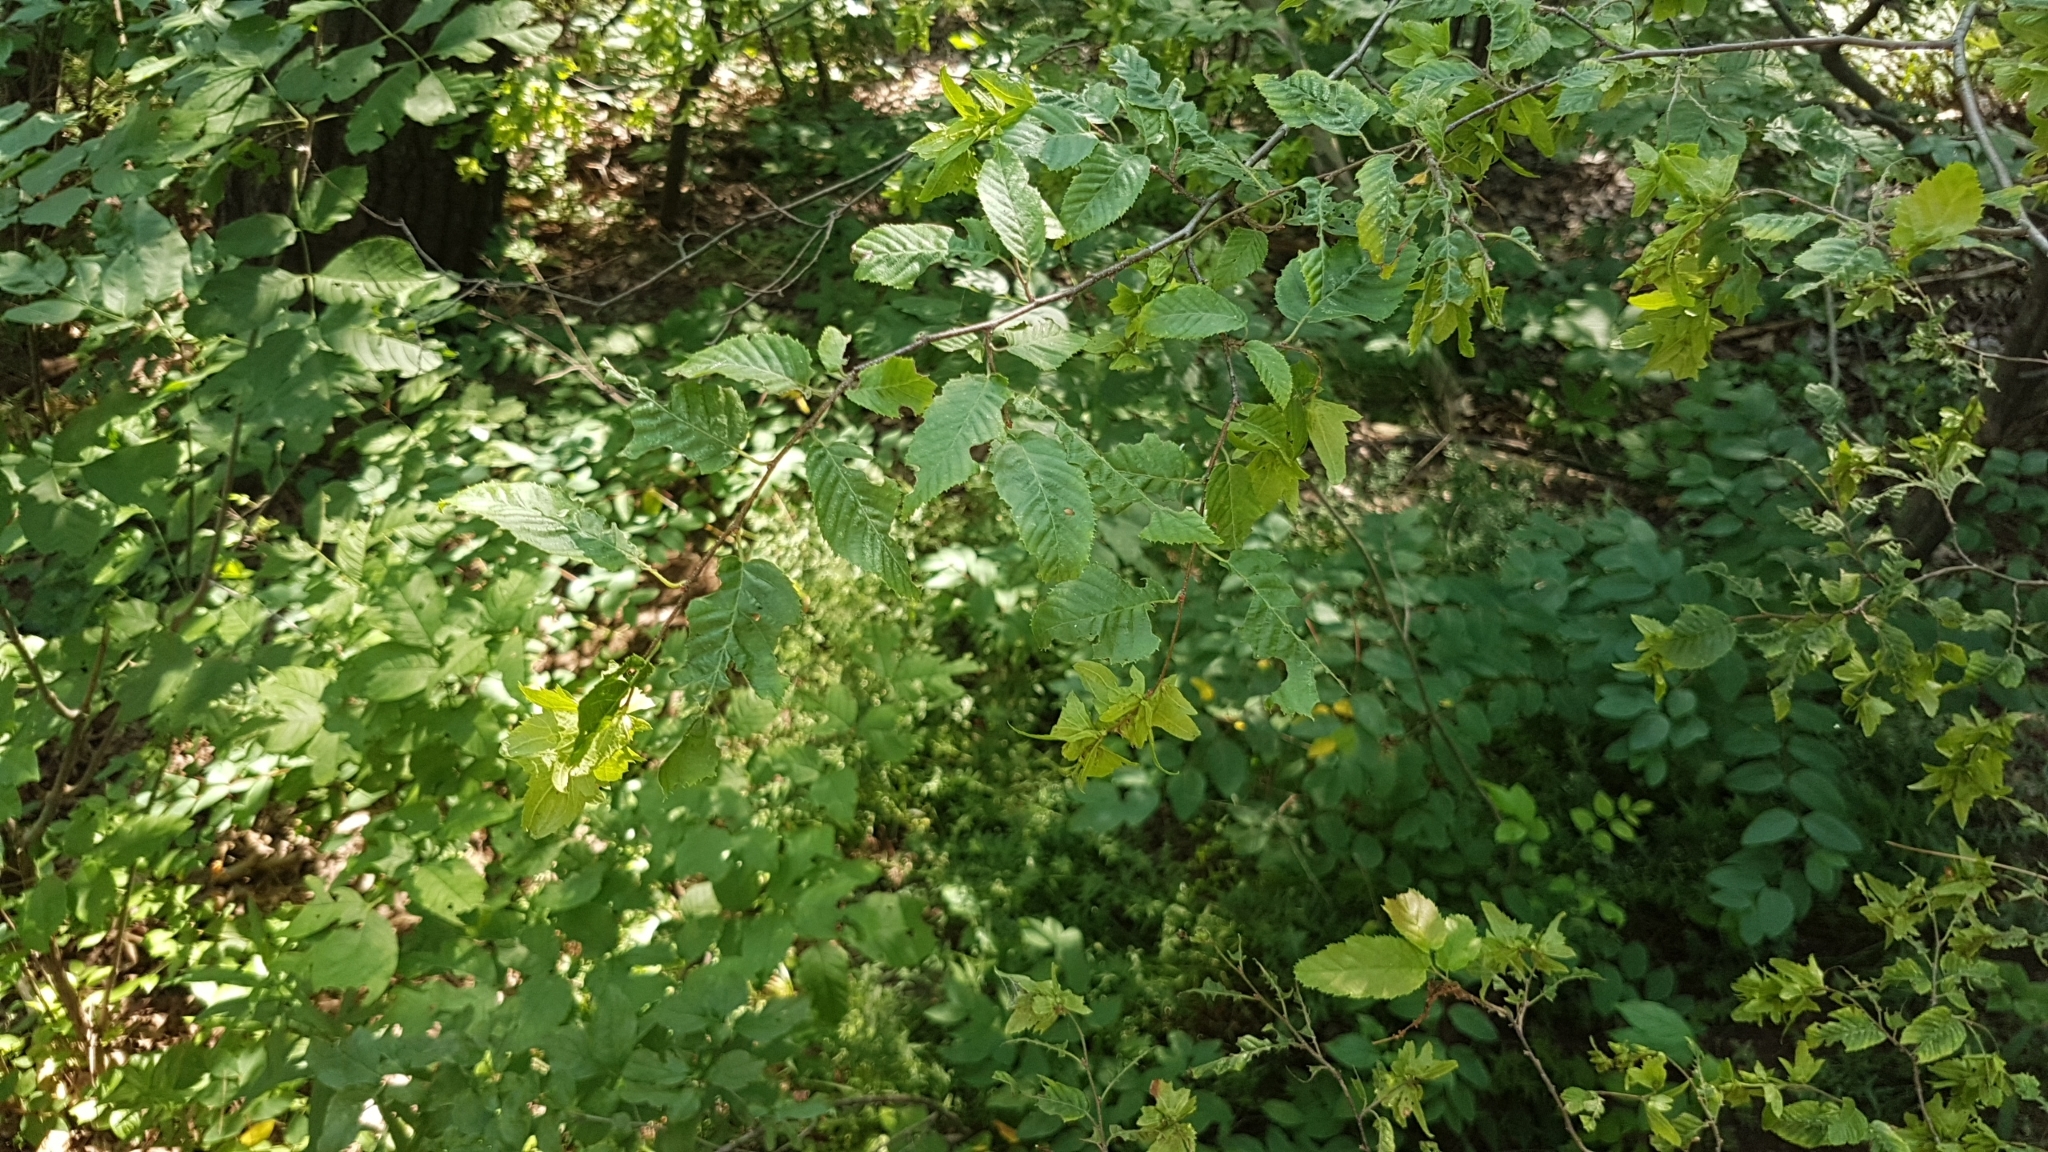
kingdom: Plantae
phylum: Tracheophyta
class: Magnoliopsida
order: Fagales
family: Betulaceae
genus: Carpinus
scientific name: Carpinus caroliniana
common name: American hornbeam
